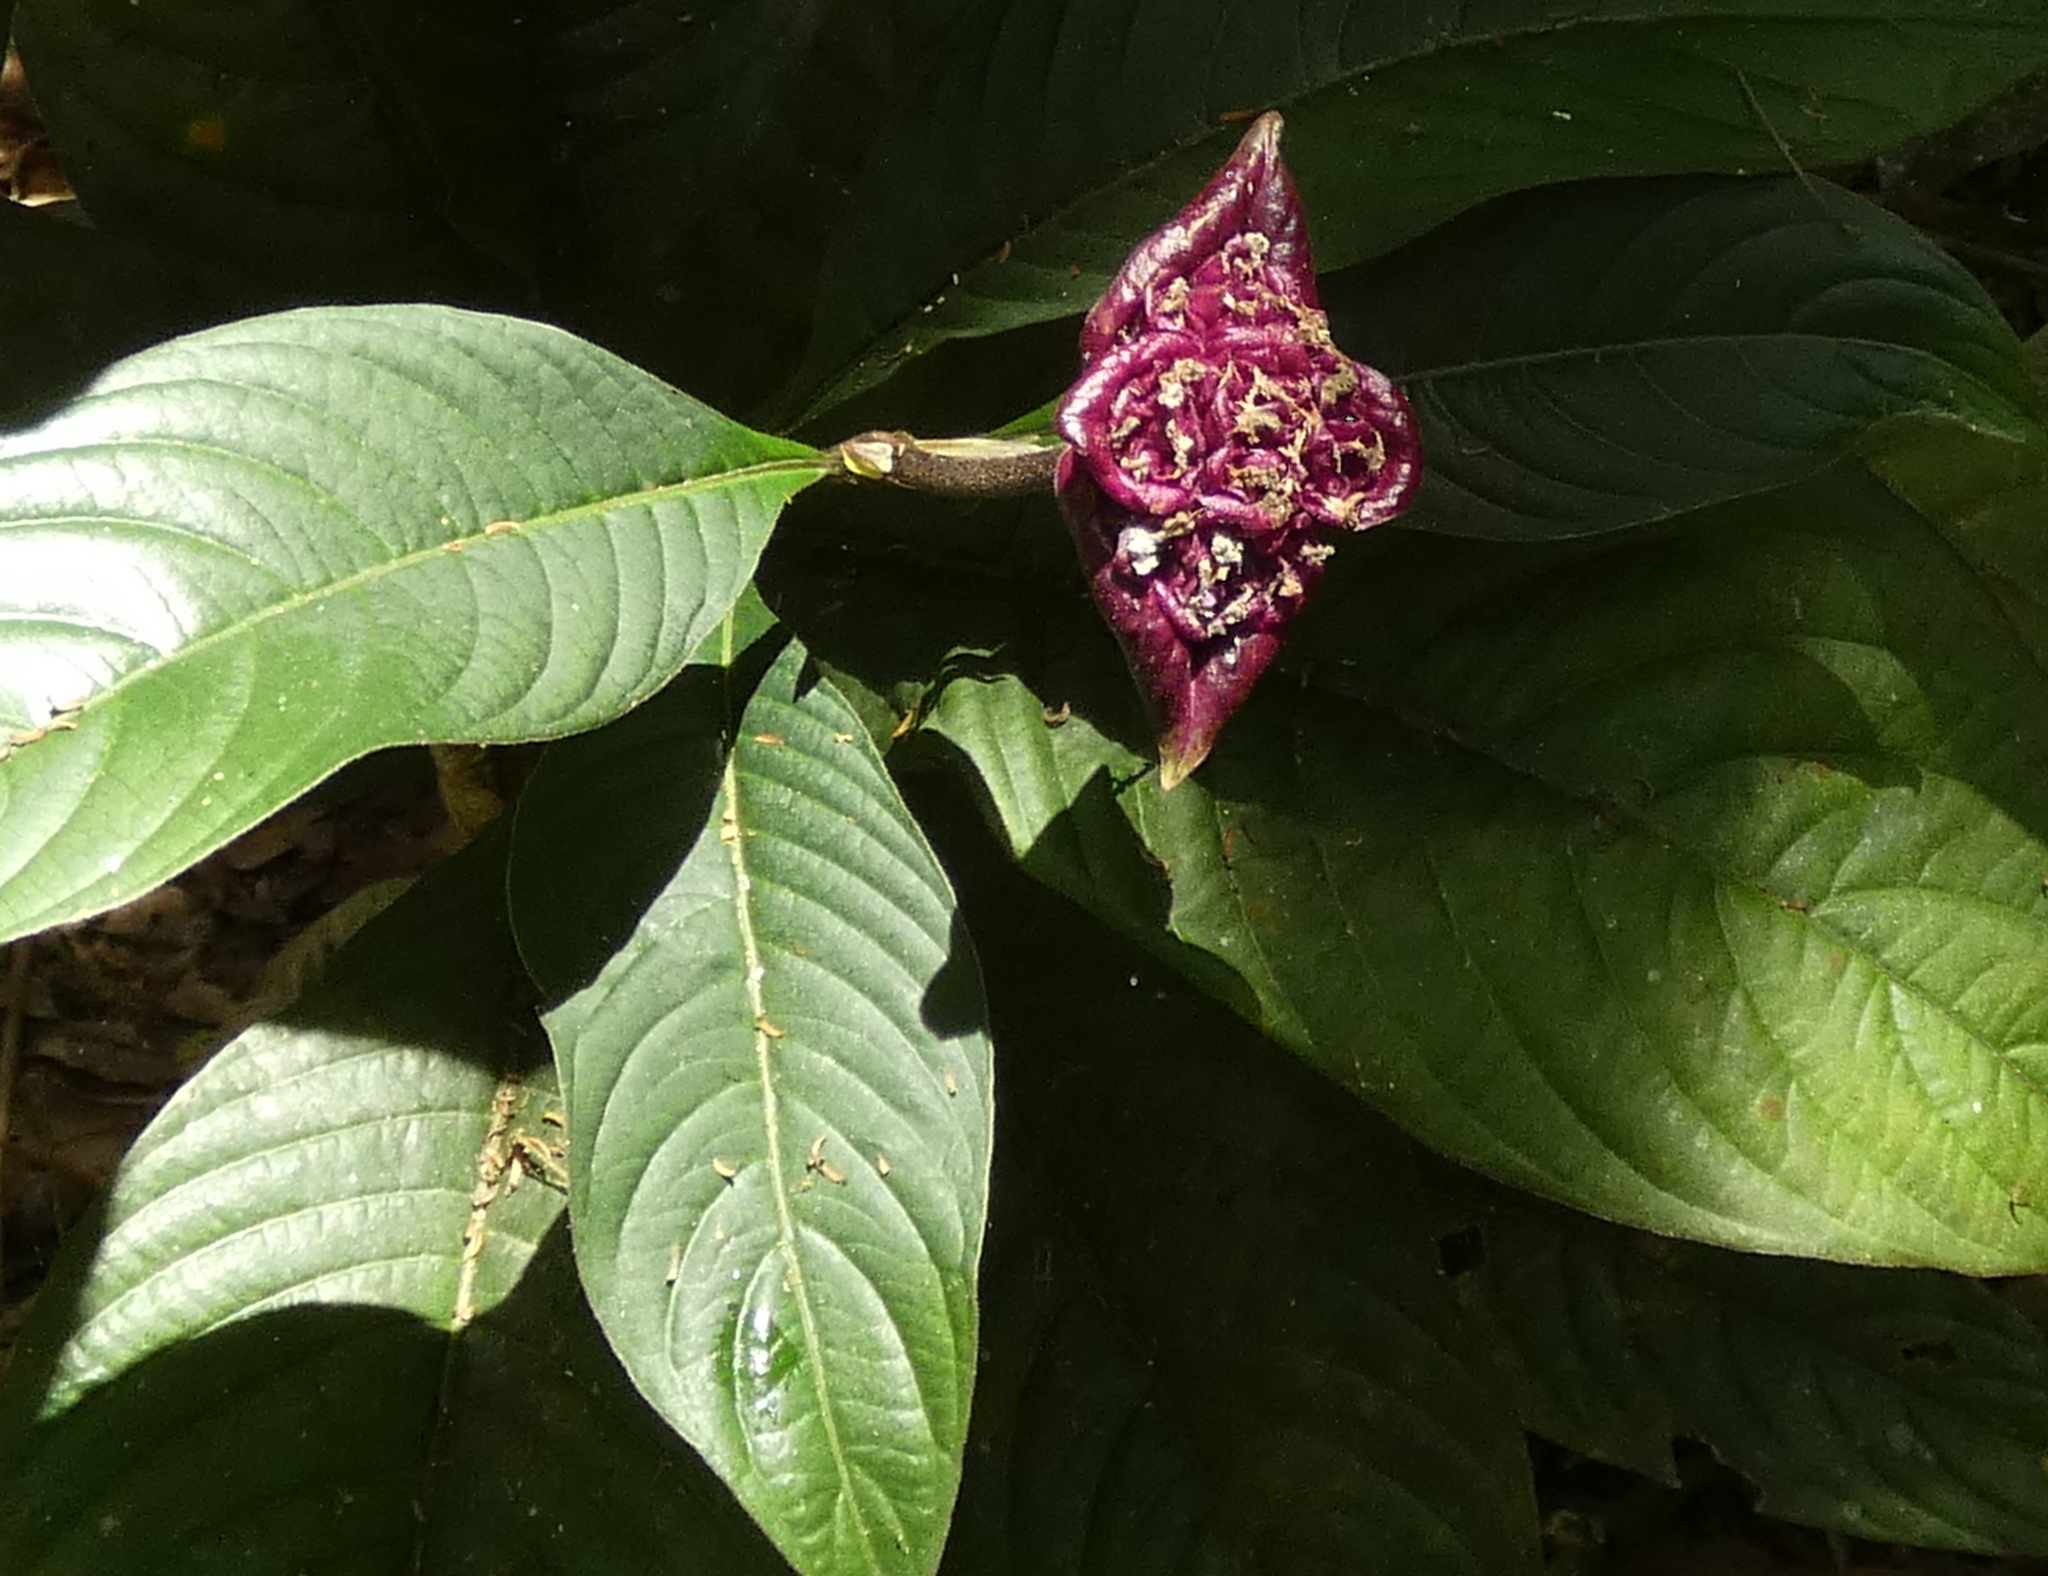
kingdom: Plantae
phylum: Tracheophyta
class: Magnoliopsida
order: Gentianales
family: Rubiaceae
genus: Palicourea
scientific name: Palicourea colorata
